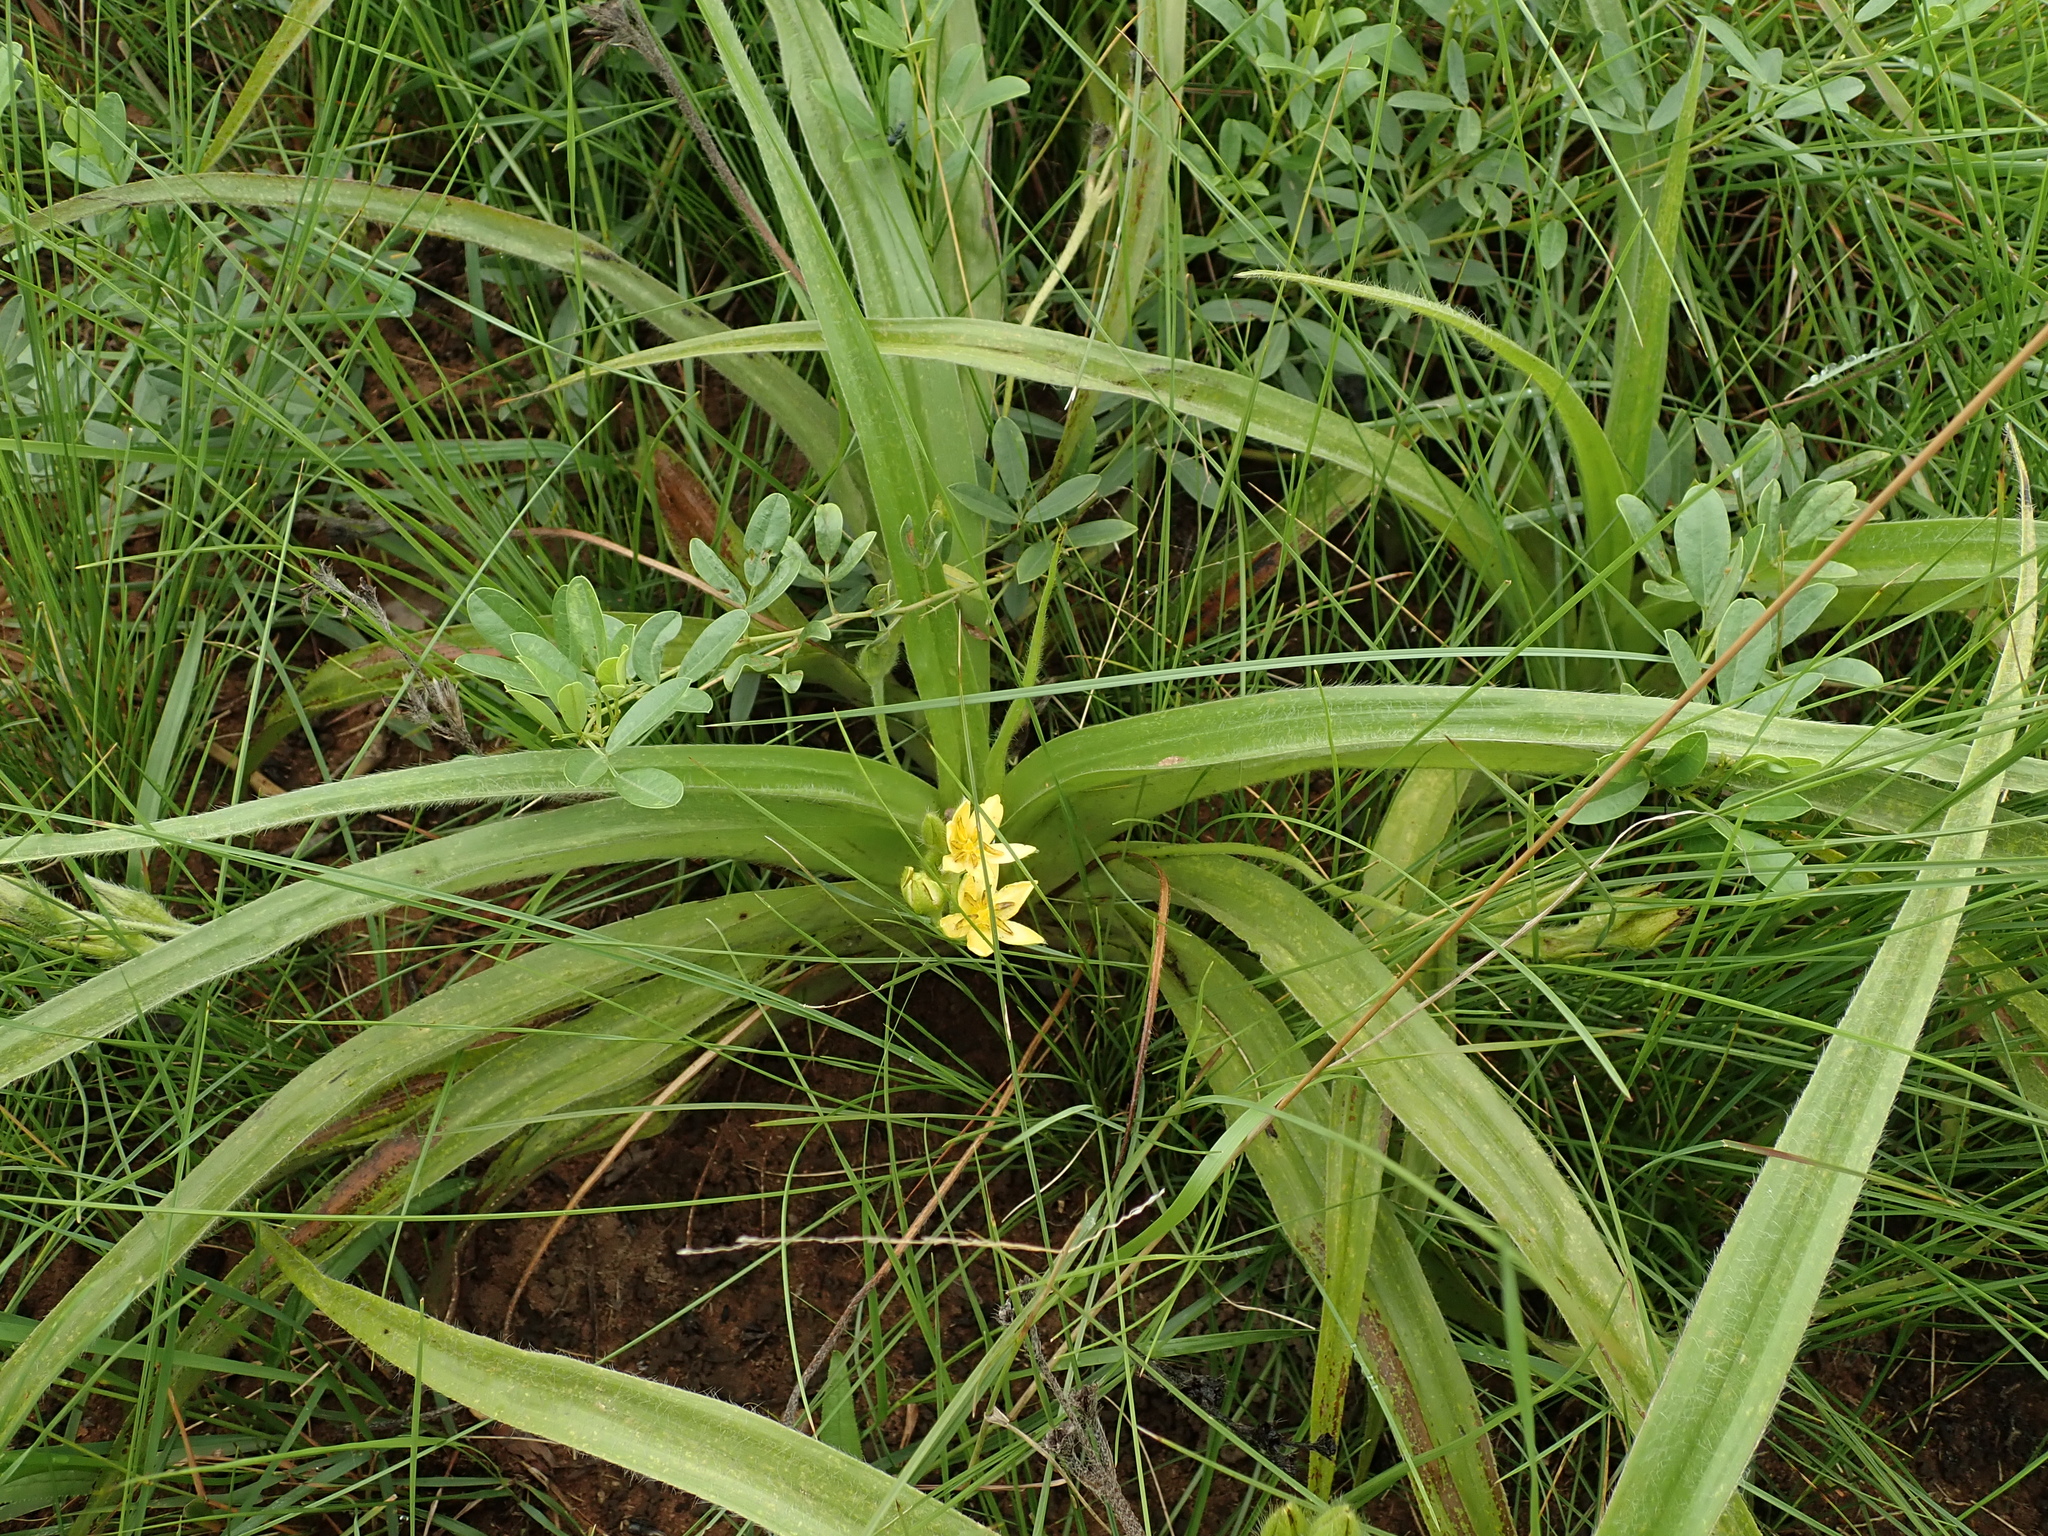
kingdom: Plantae
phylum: Tracheophyta
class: Liliopsida
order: Asparagales
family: Hypoxidaceae
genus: Hypoxis
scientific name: Hypoxis hemerocallidea
